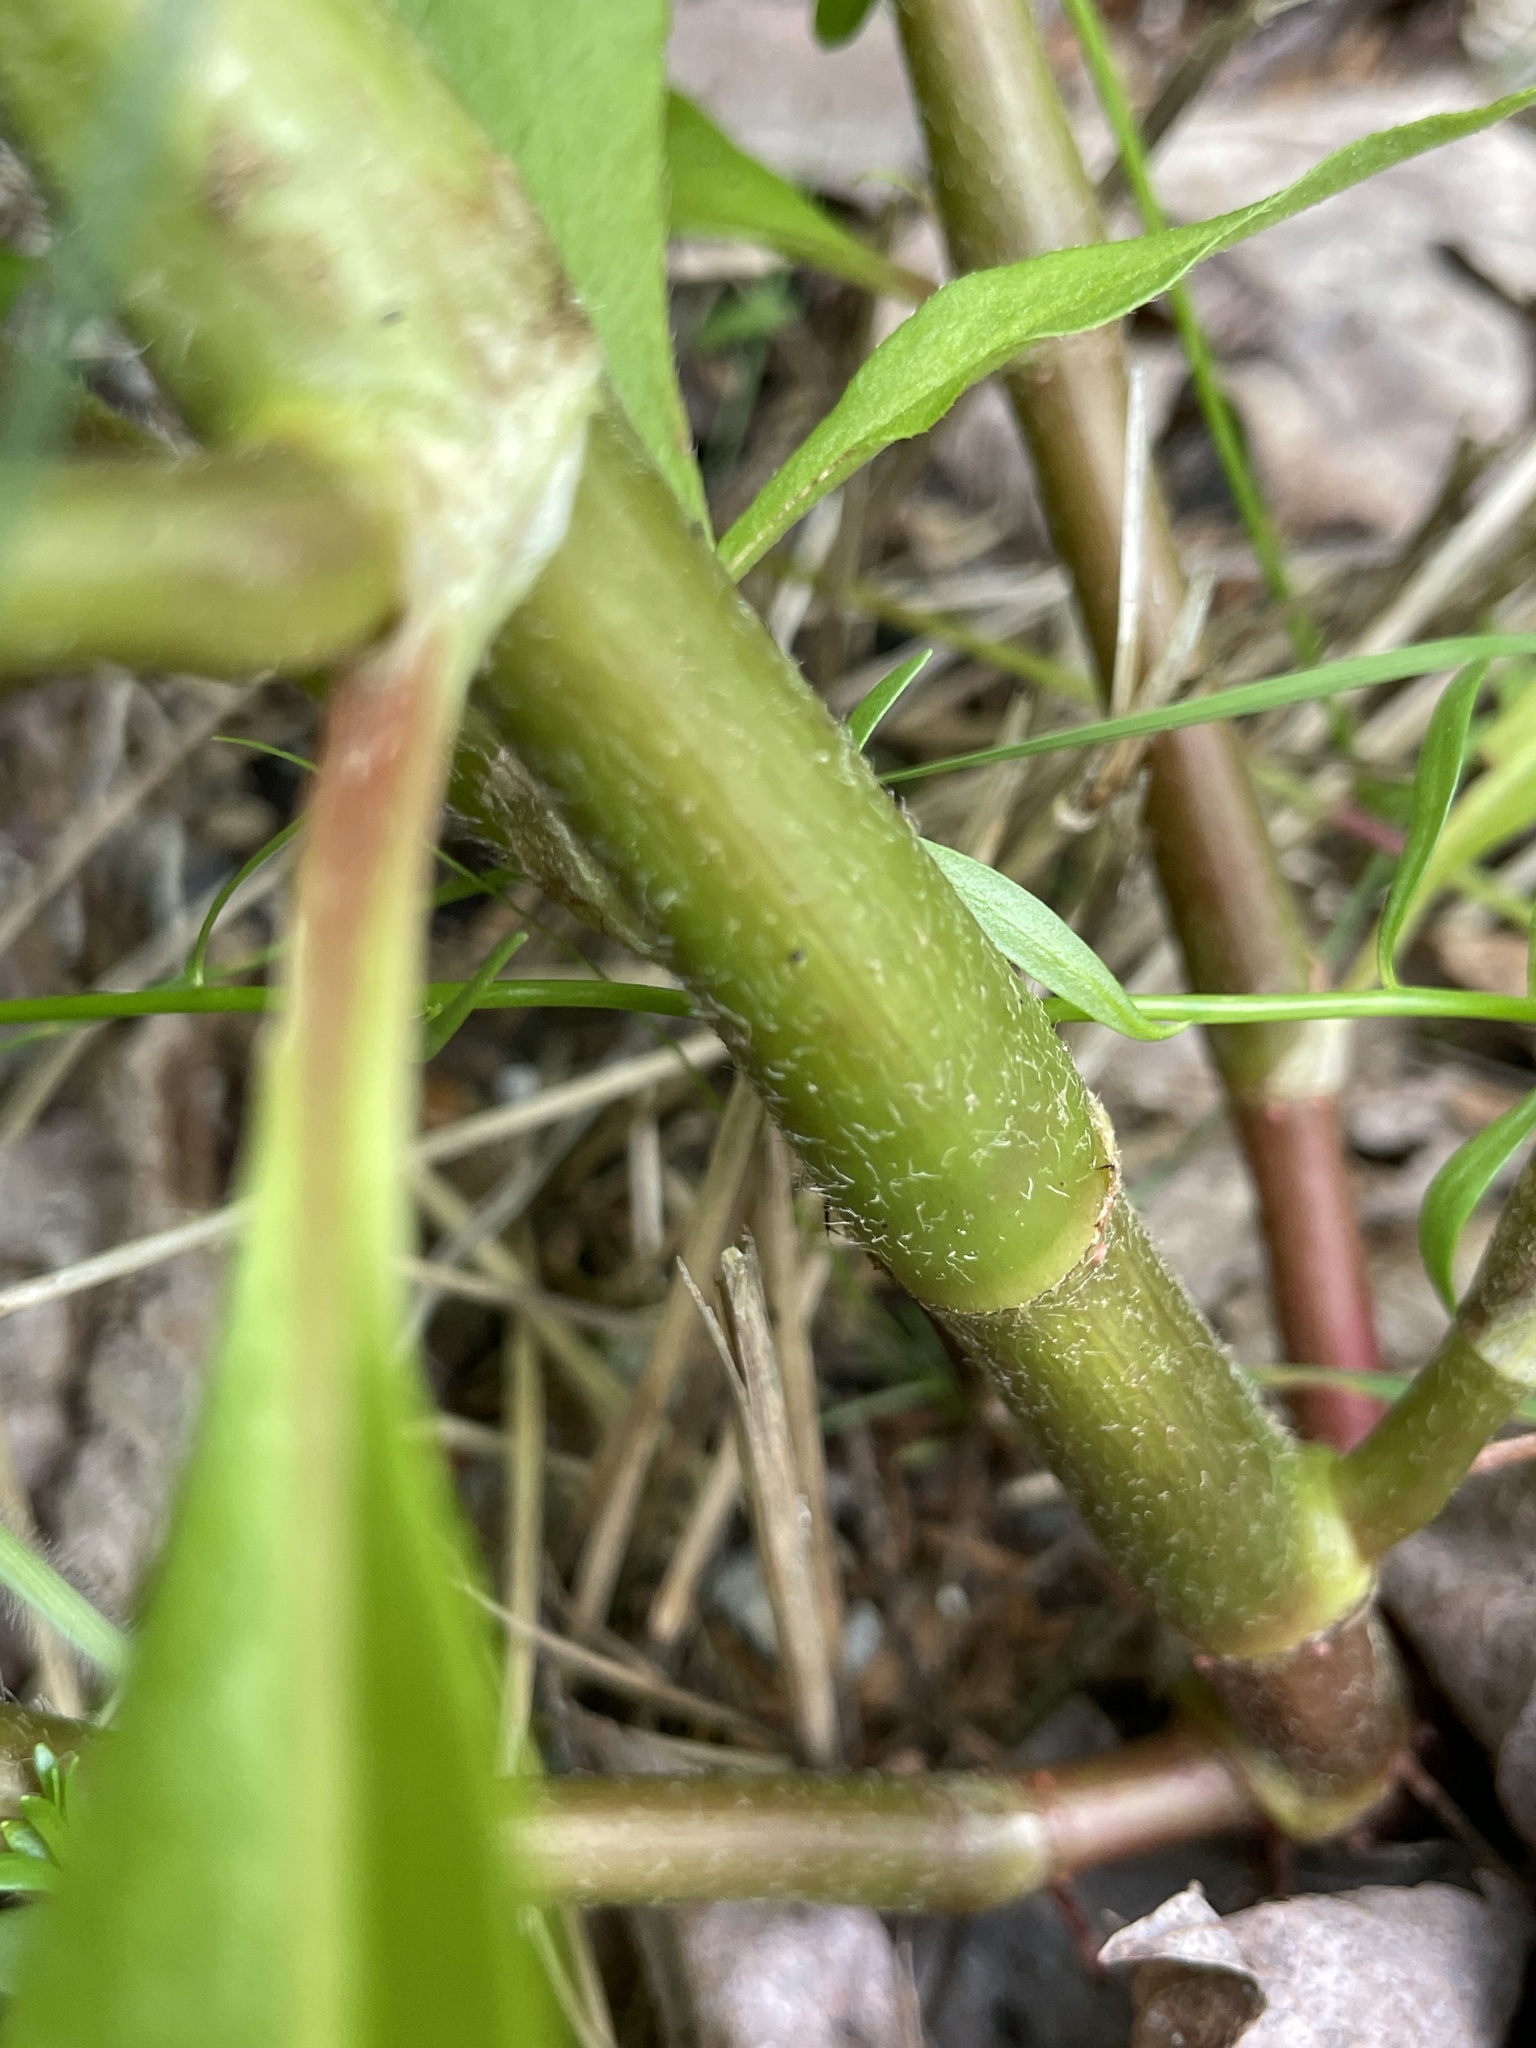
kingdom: Plantae
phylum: Tracheophyta
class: Magnoliopsida
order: Caryophyllales
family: Polygonaceae
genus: Persicaria
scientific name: Persicaria extremiorientalis
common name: Far-eastern smartweed
